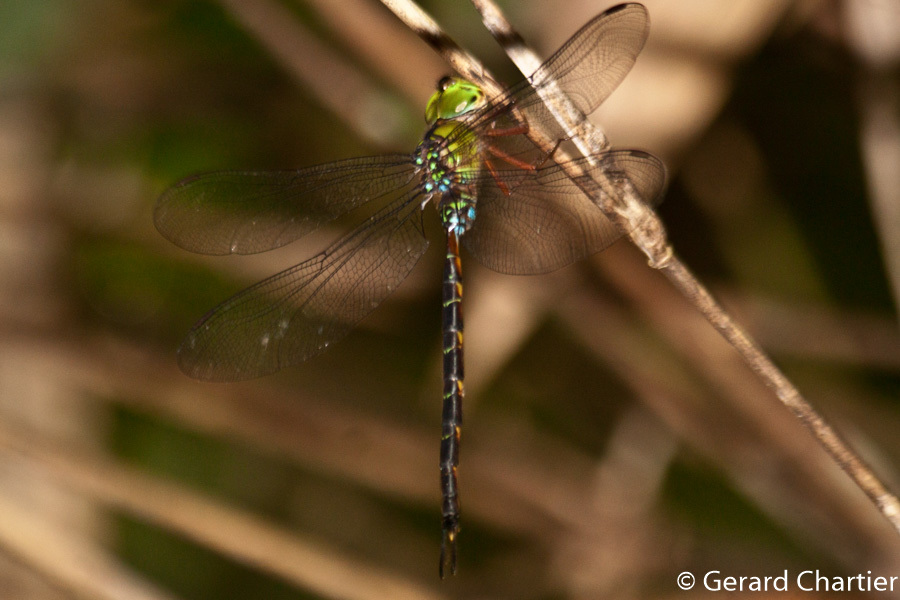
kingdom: Animalia
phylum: Arthropoda
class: Insecta
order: Odonata
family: Aeshnidae
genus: Gynacantha
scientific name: Gynacantha demeter
